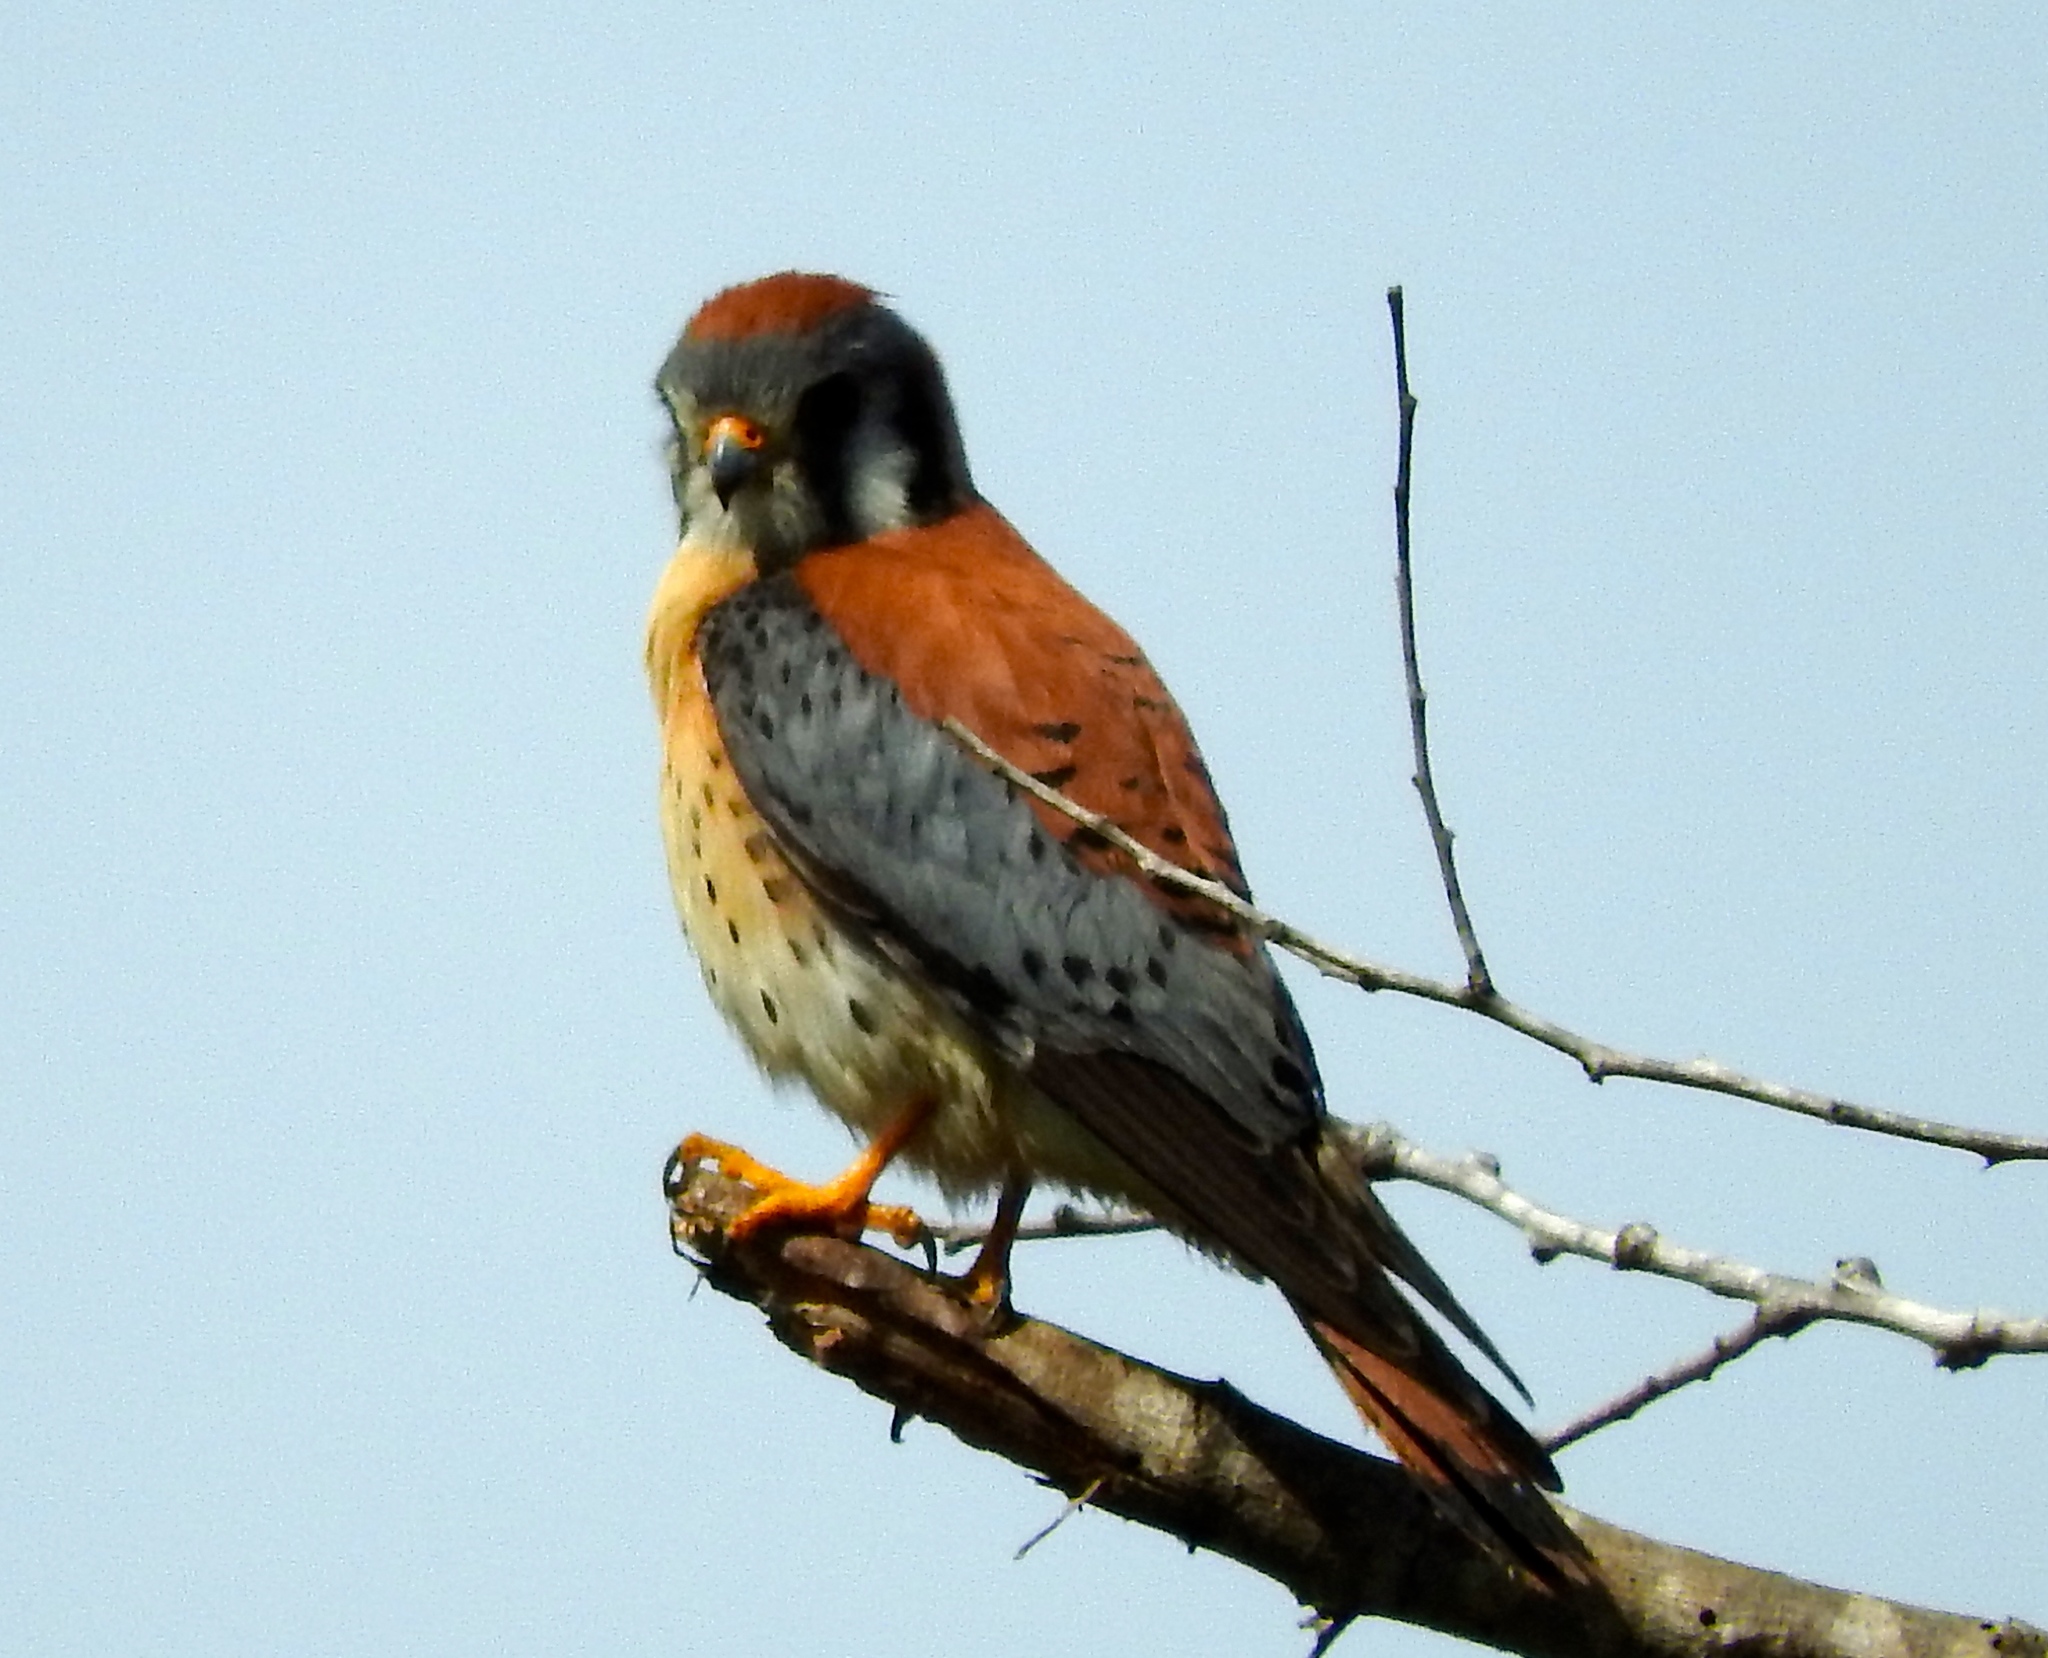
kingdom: Animalia
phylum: Chordata
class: Aves
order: Falconiformes
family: Falconidae
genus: Falco
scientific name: Falco sparverius
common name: American kestrel
